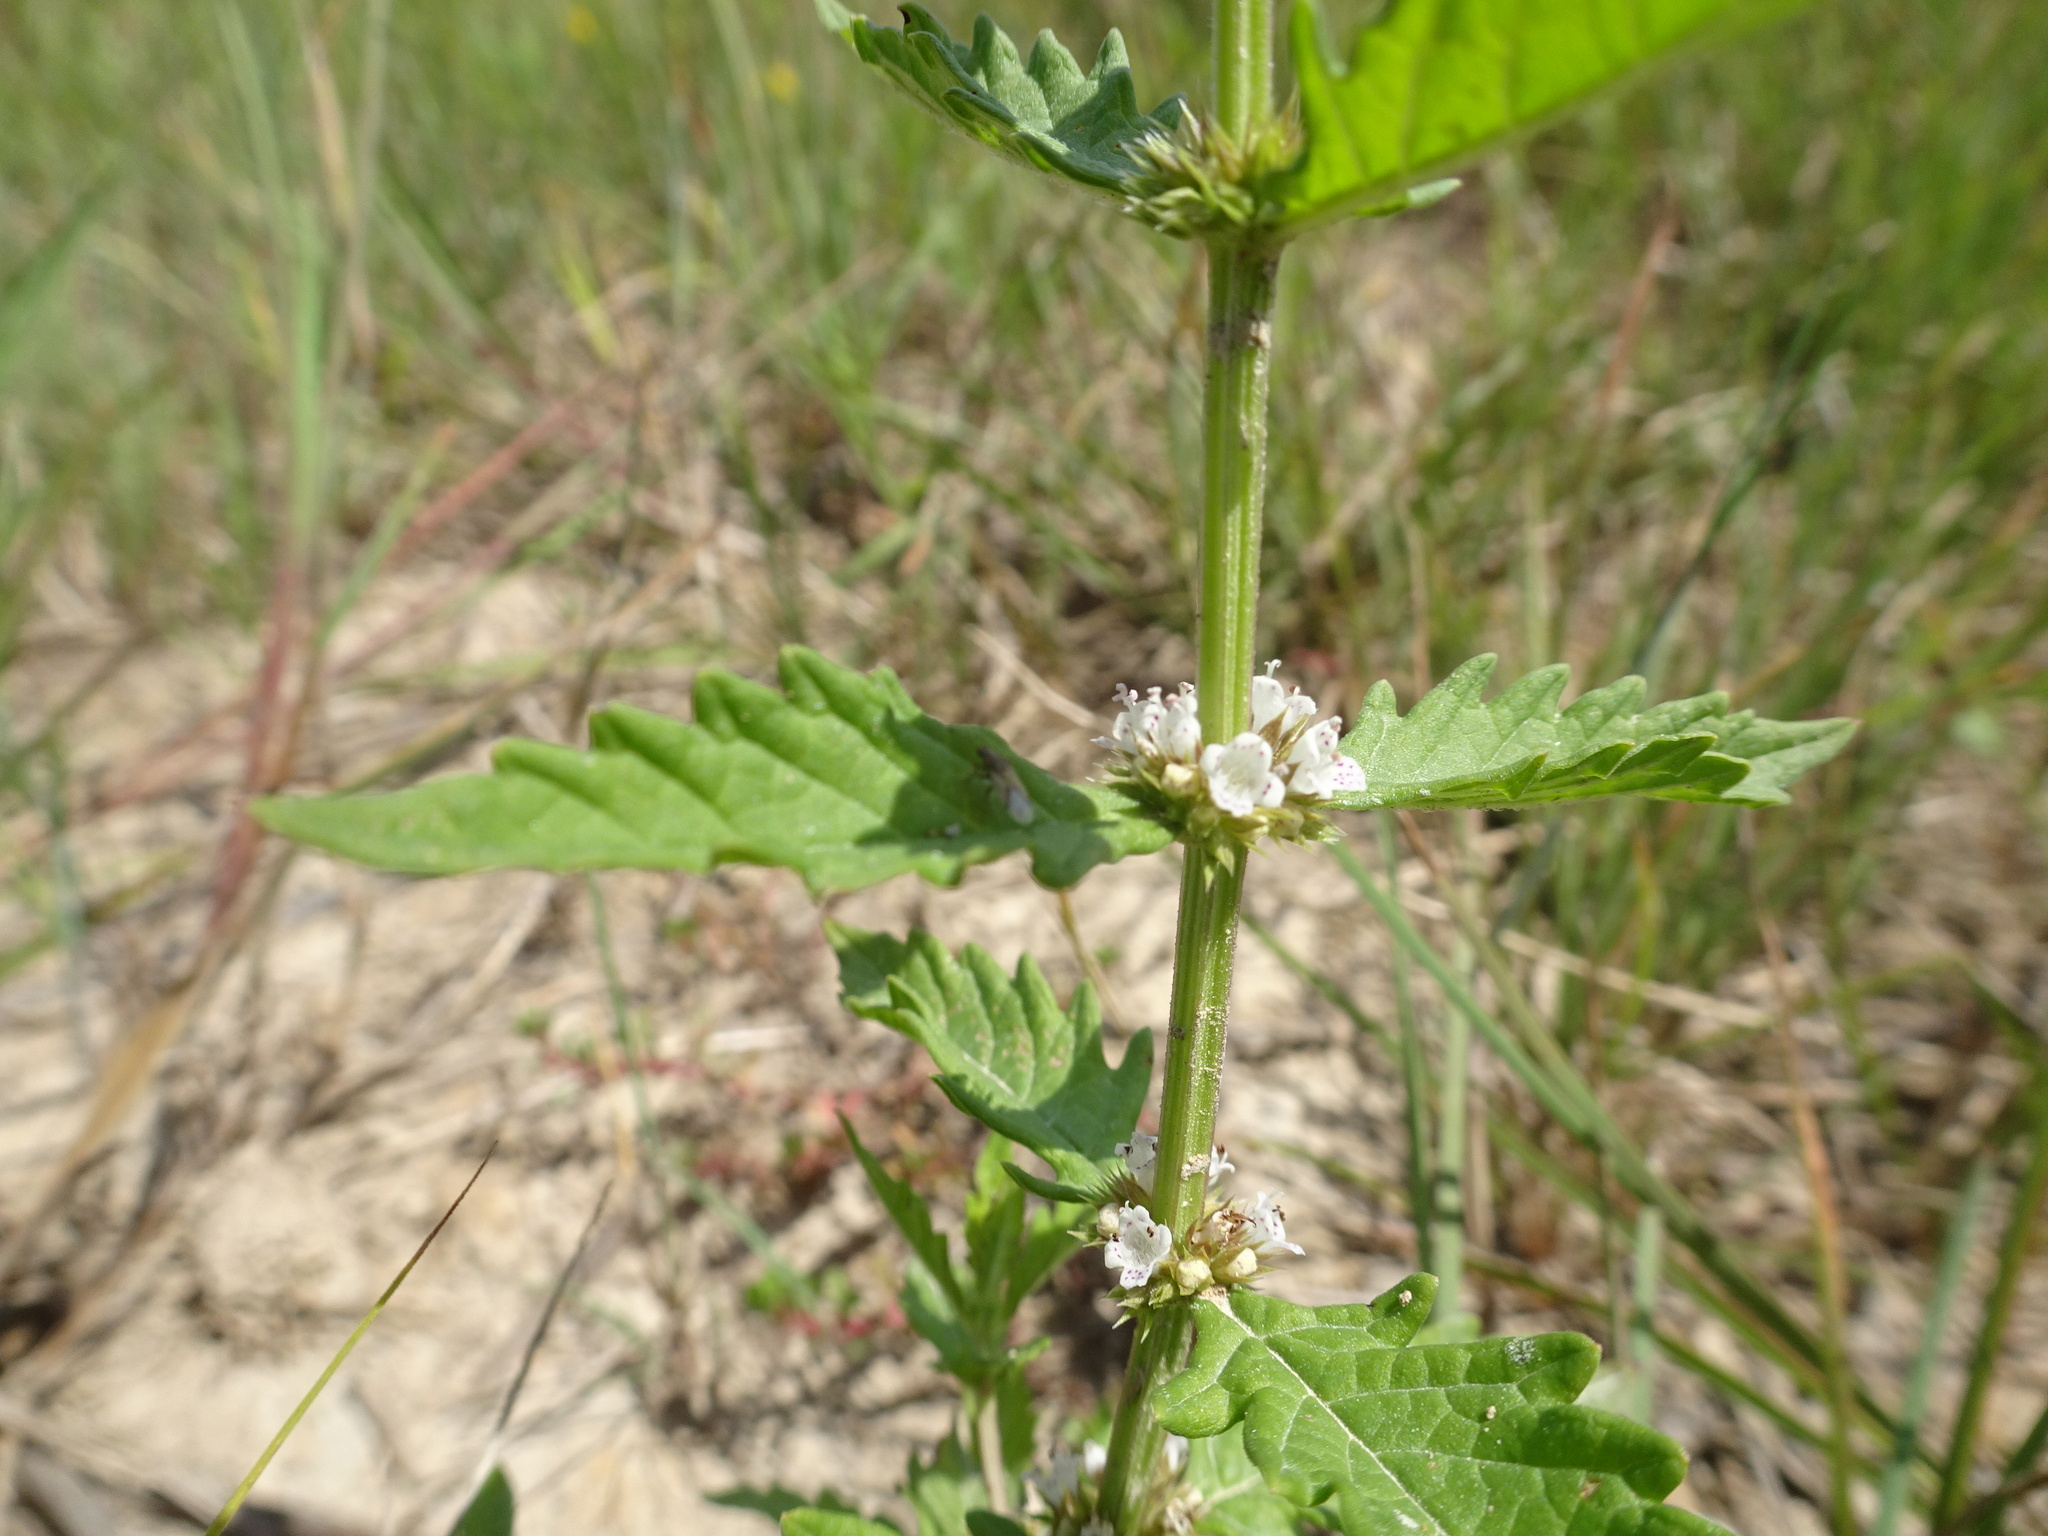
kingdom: Plantae
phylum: Tracheophyta
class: Magnoliopsida
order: Lamiales
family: Lamiaceae
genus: Lycopus
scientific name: Lycopus europaeus
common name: European bugleweed
